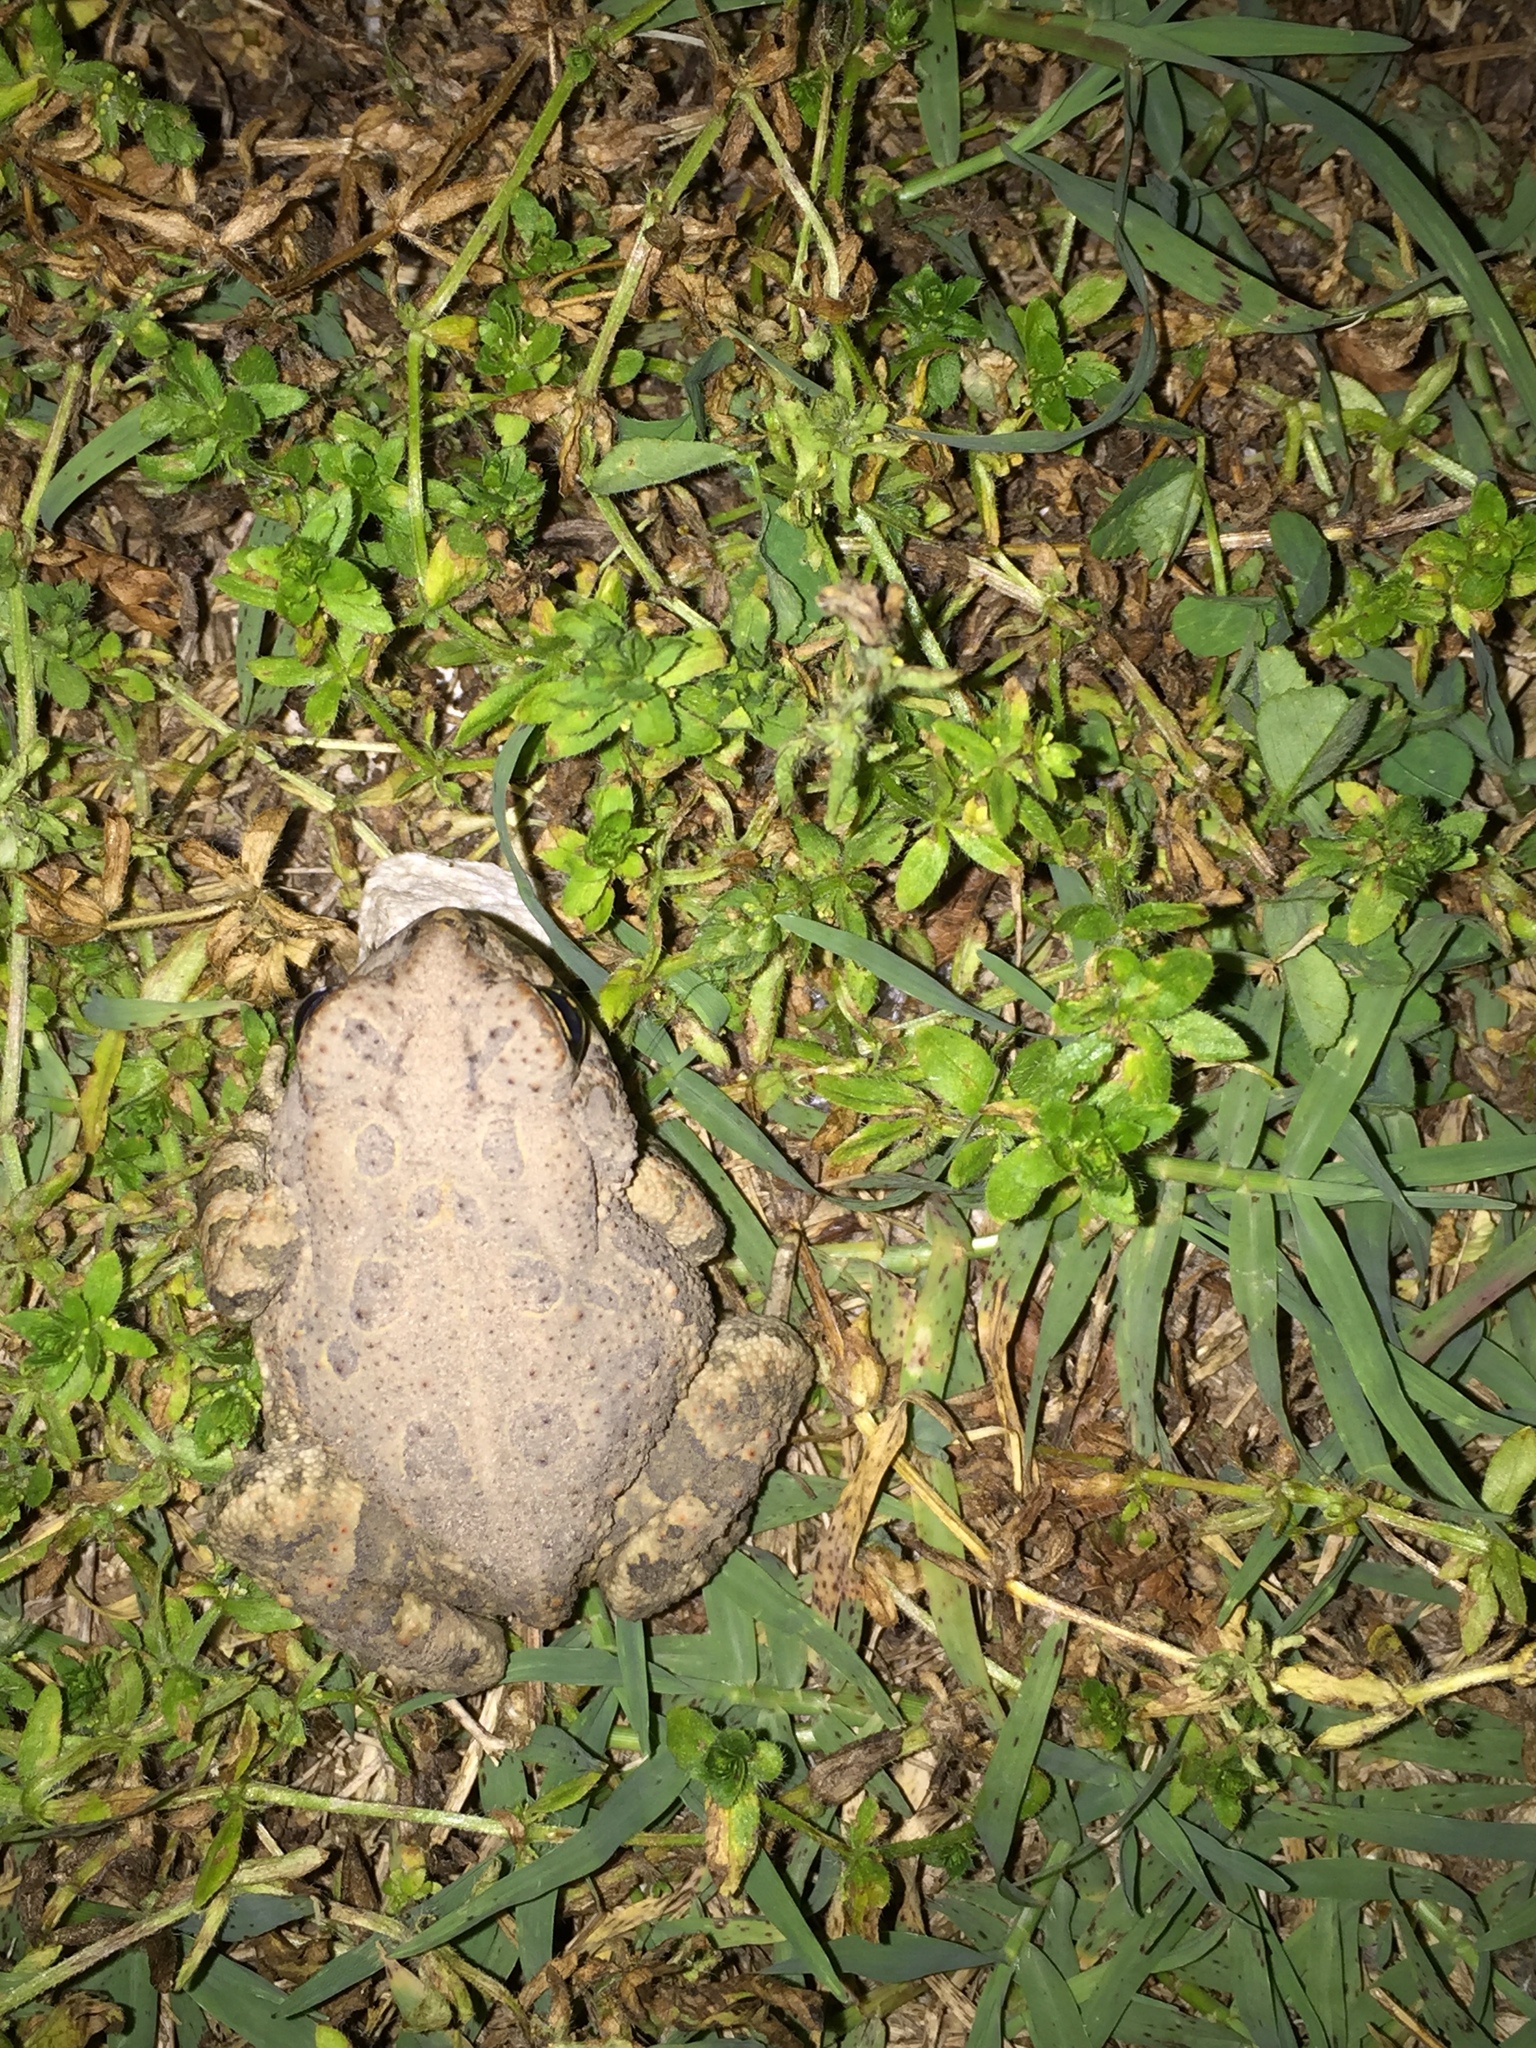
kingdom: Animalia
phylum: Chordata
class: Amphibia
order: Anura
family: Bufonidae
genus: Anaxyrus
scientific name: Anaxyrus americanus
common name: American toad
